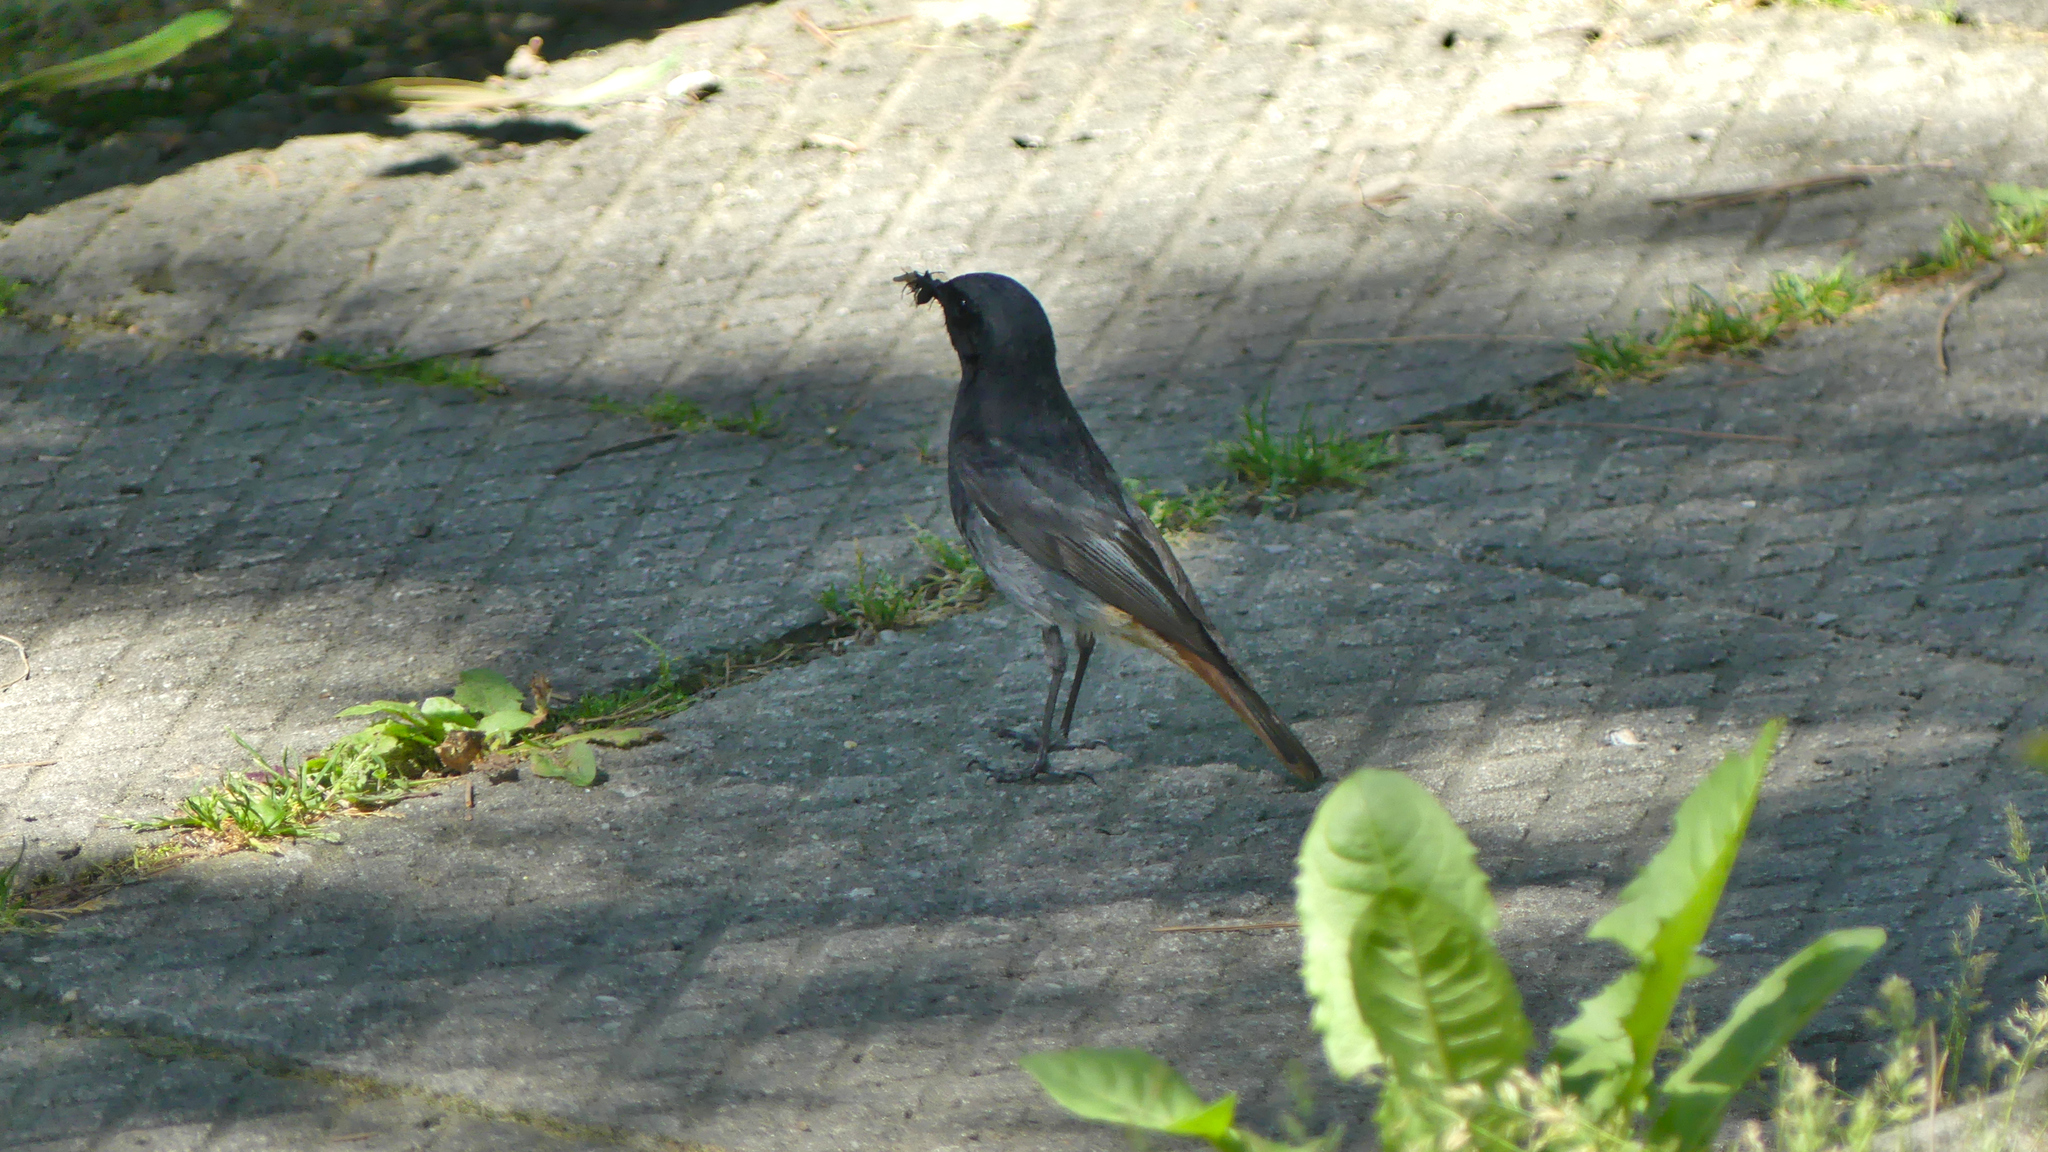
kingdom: Animalia
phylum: Chordata
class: Aves
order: Passeriformes
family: Muscicapidae
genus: Phoenicurus
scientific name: Phoenicurus ochruros
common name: Black redstart
